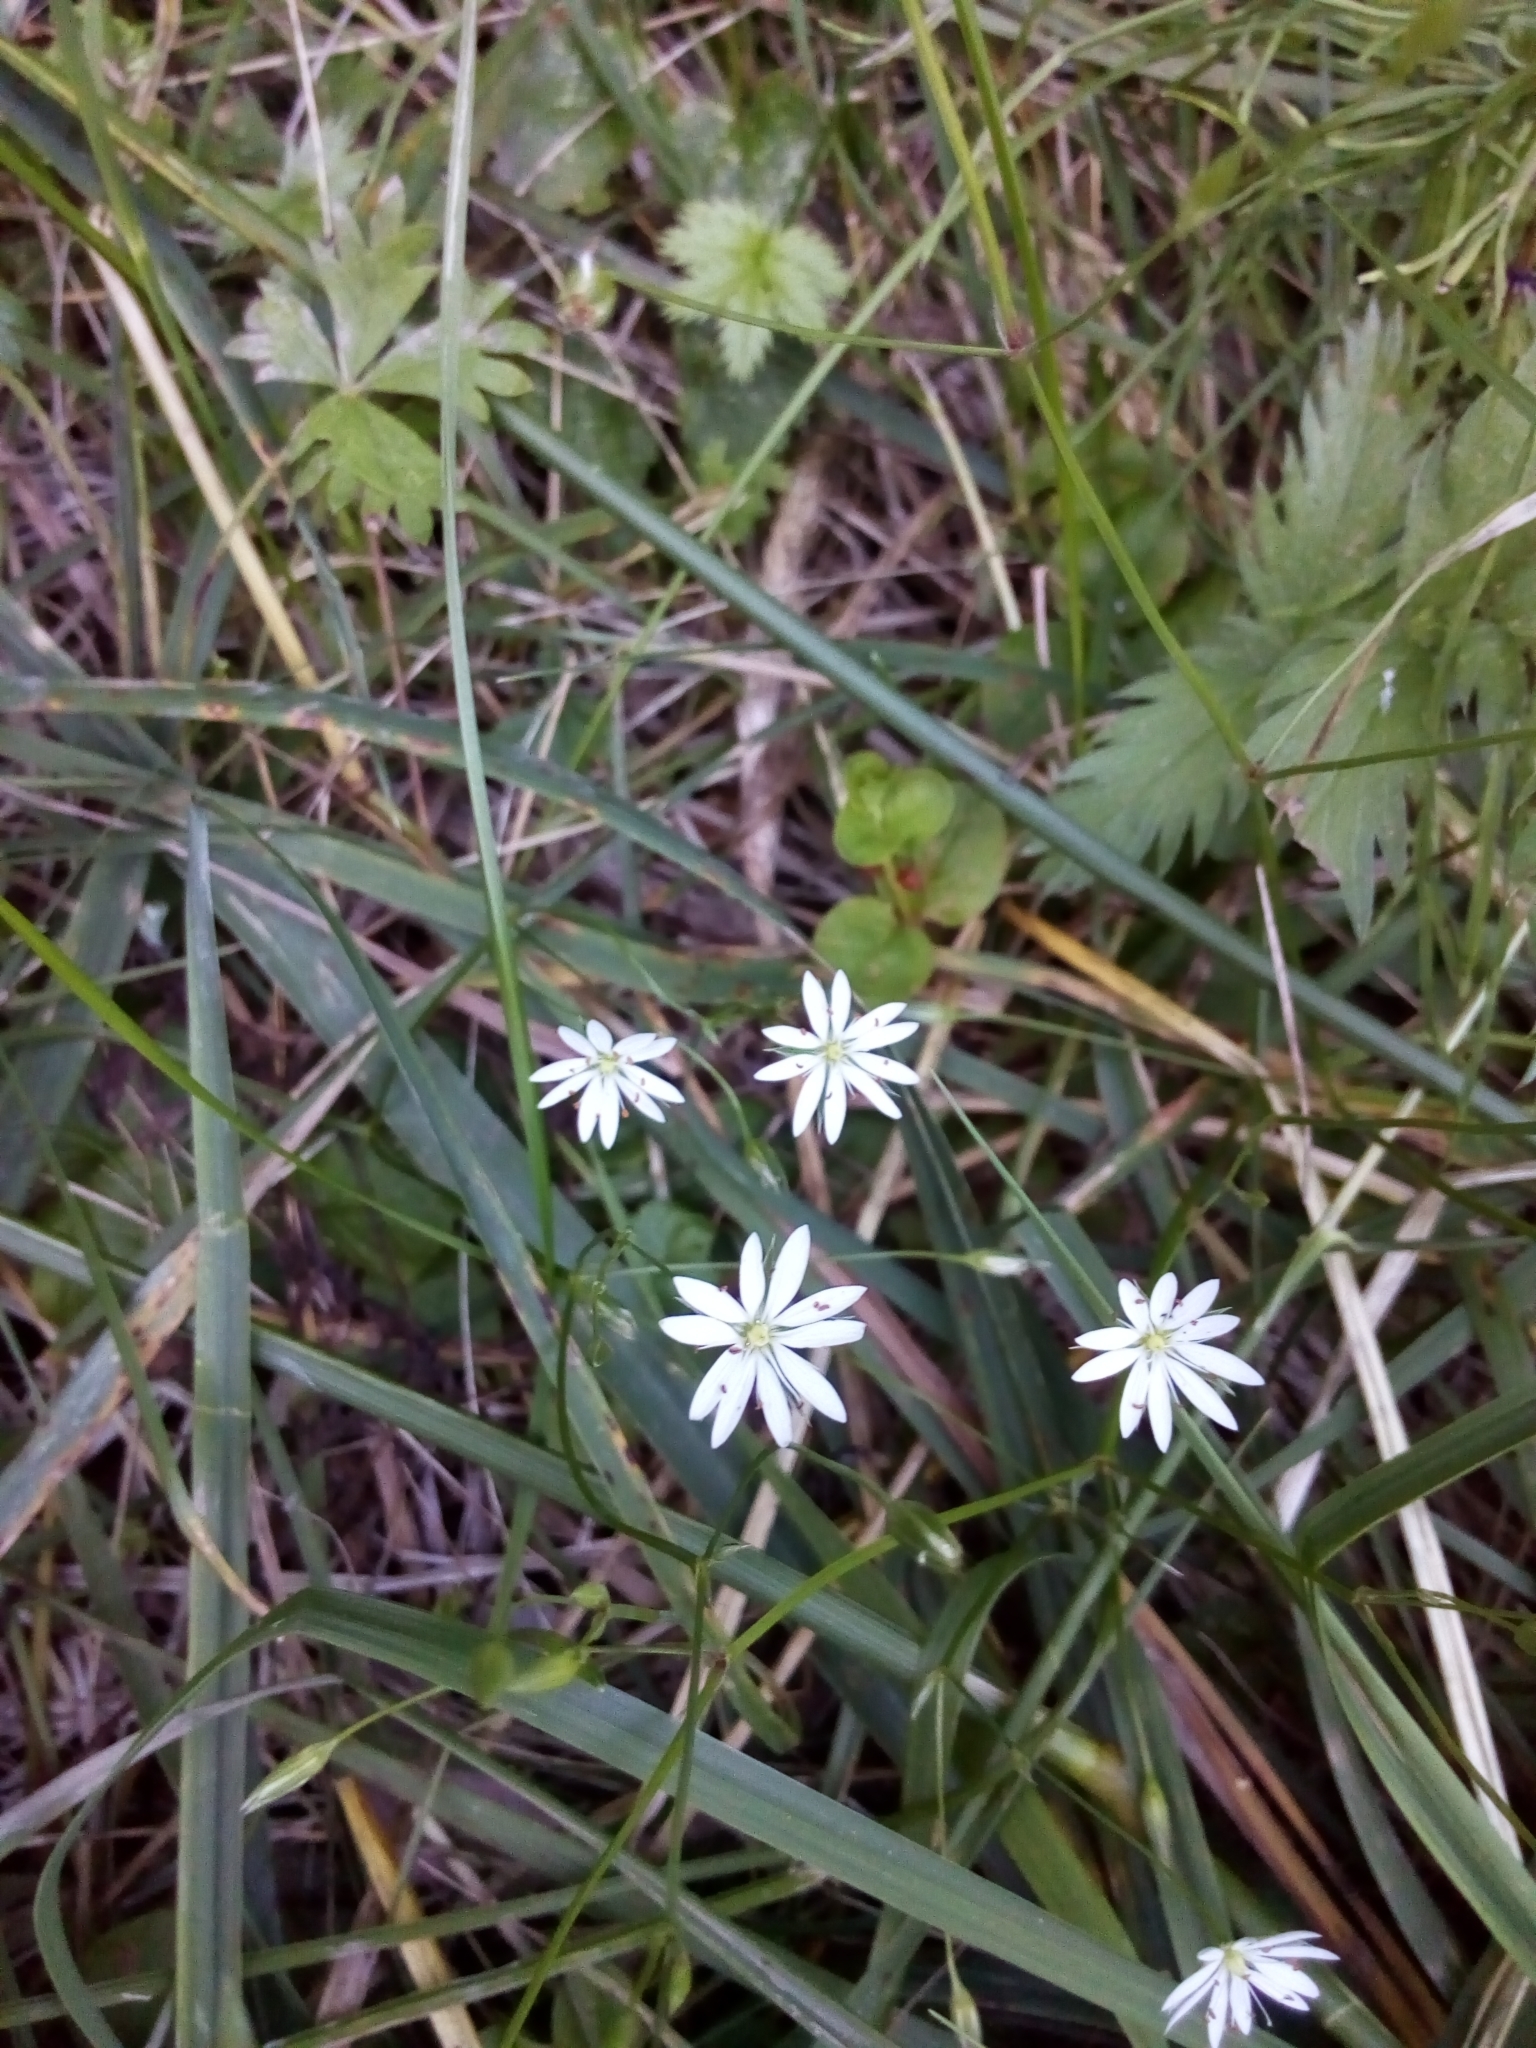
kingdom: Plantae
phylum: Tracheophyta
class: Magnoliopsida
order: Caryophyllales
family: Caryophyllaceae
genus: Stellaria
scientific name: Stellaria graminea
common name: Grass-like starwort
